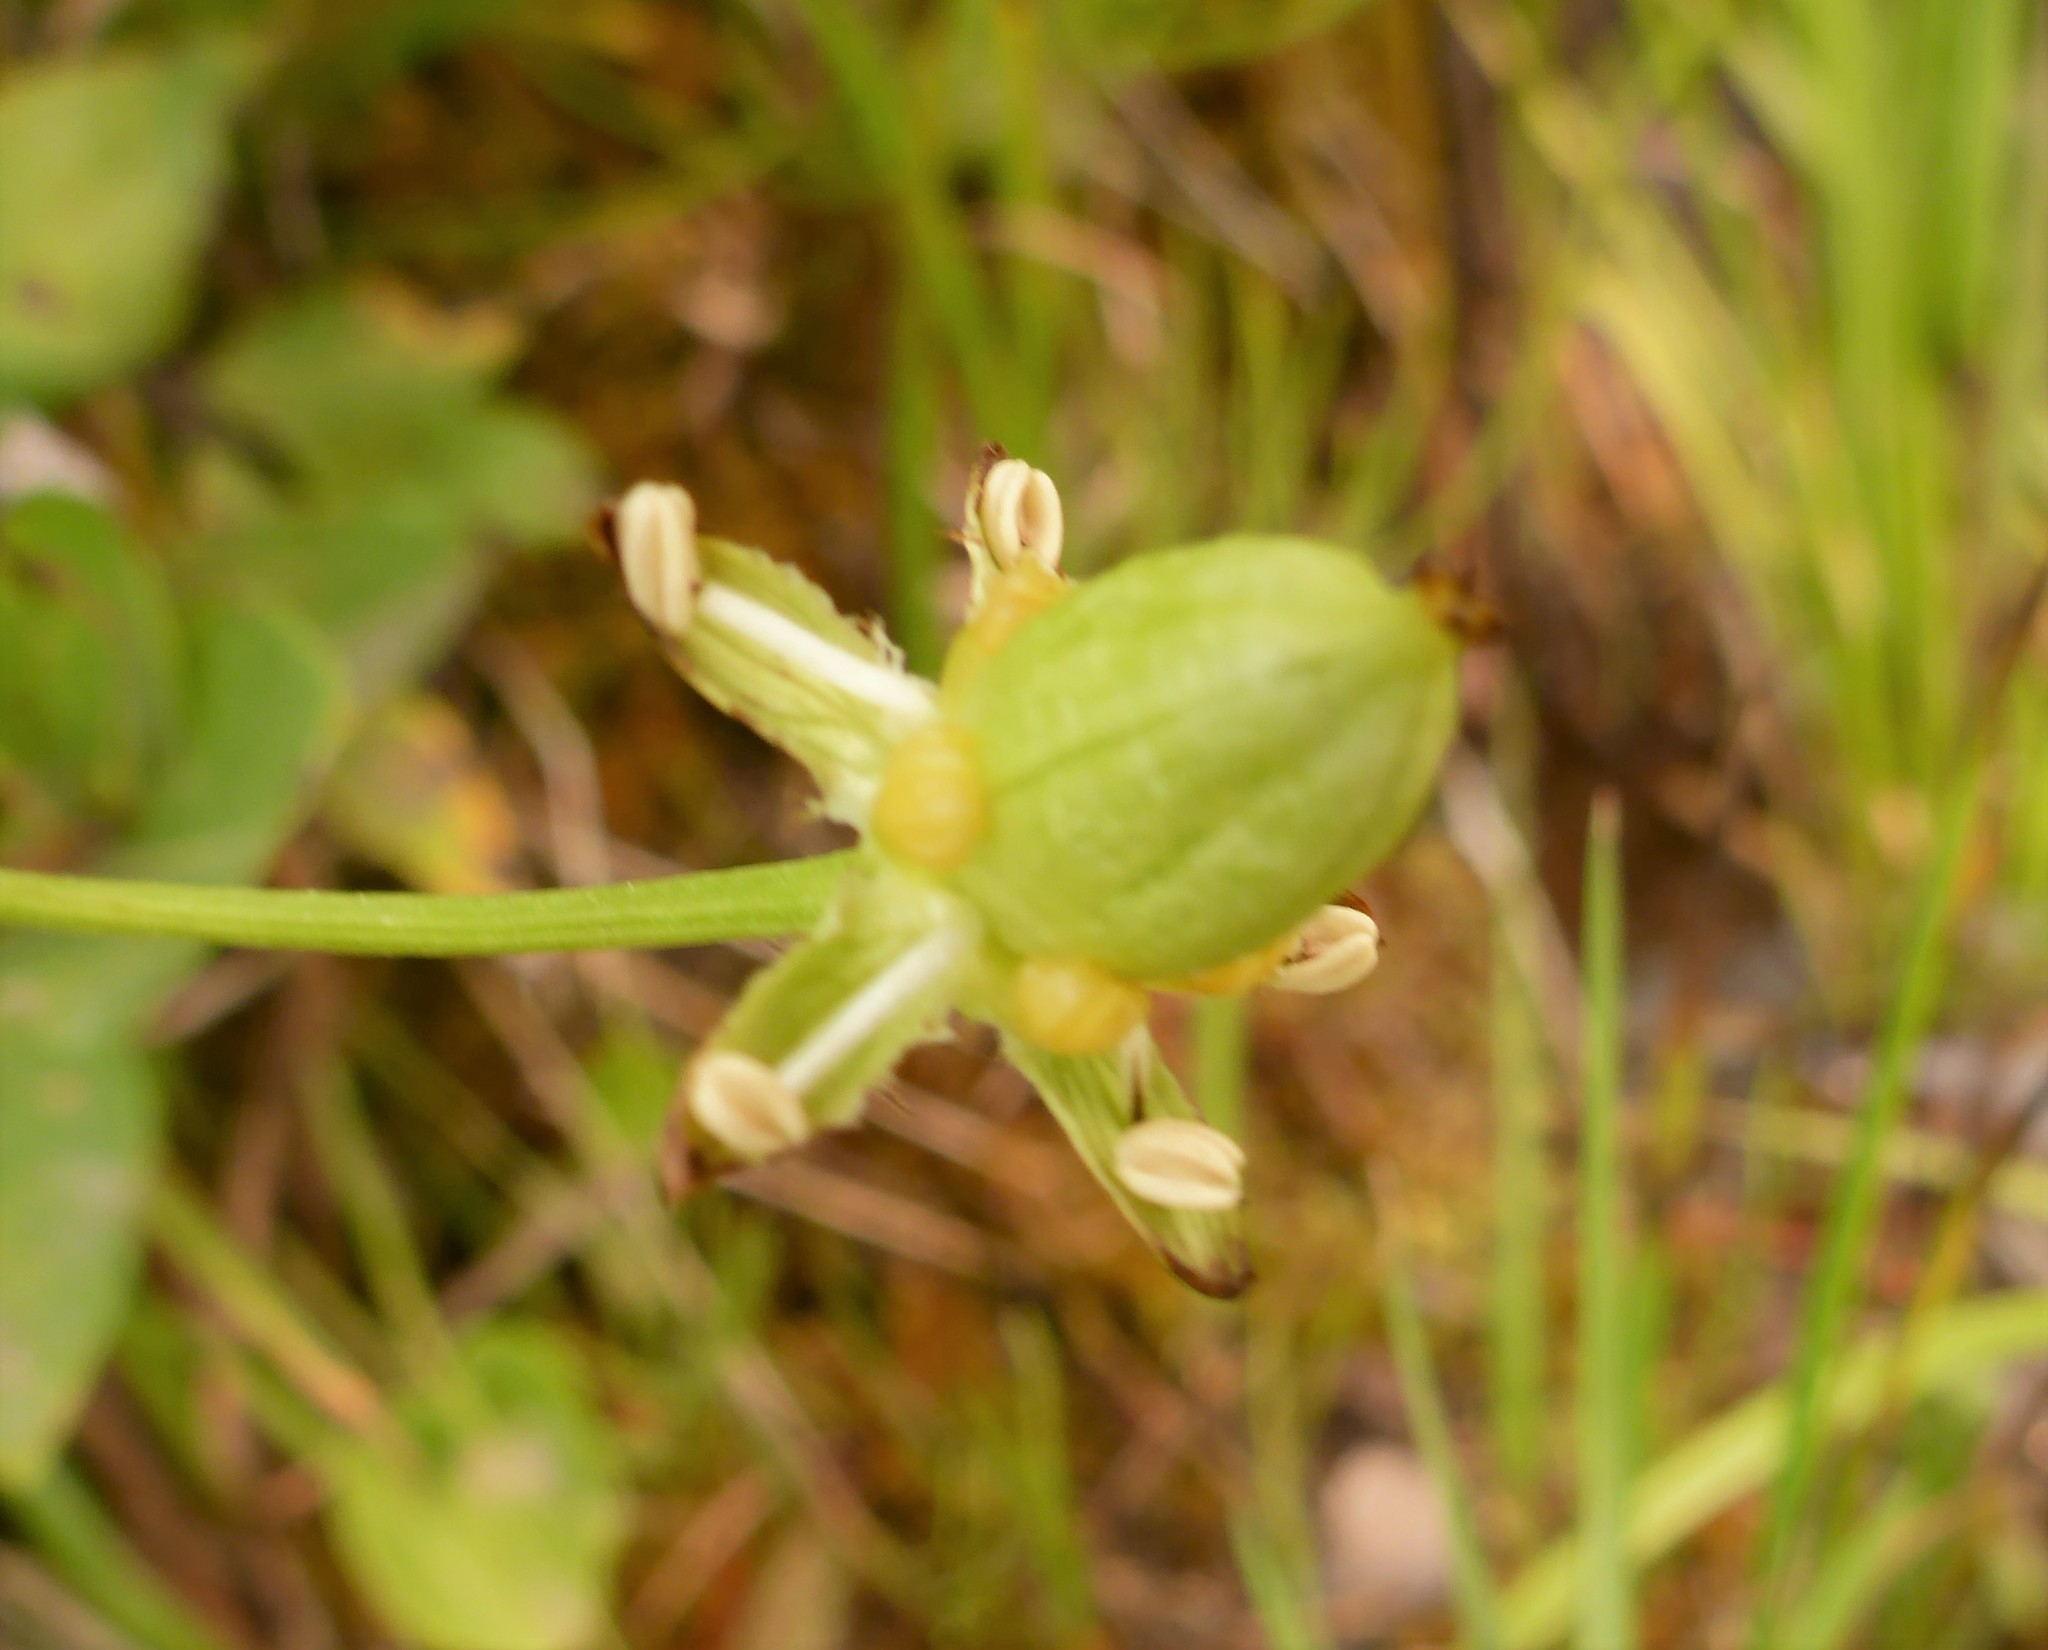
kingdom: Plantae
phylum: Tracheophyta
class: Magnoliopsida
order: Celastrales
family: Parnassiaceae
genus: Parnassia
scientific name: Parnassia fimbriata
